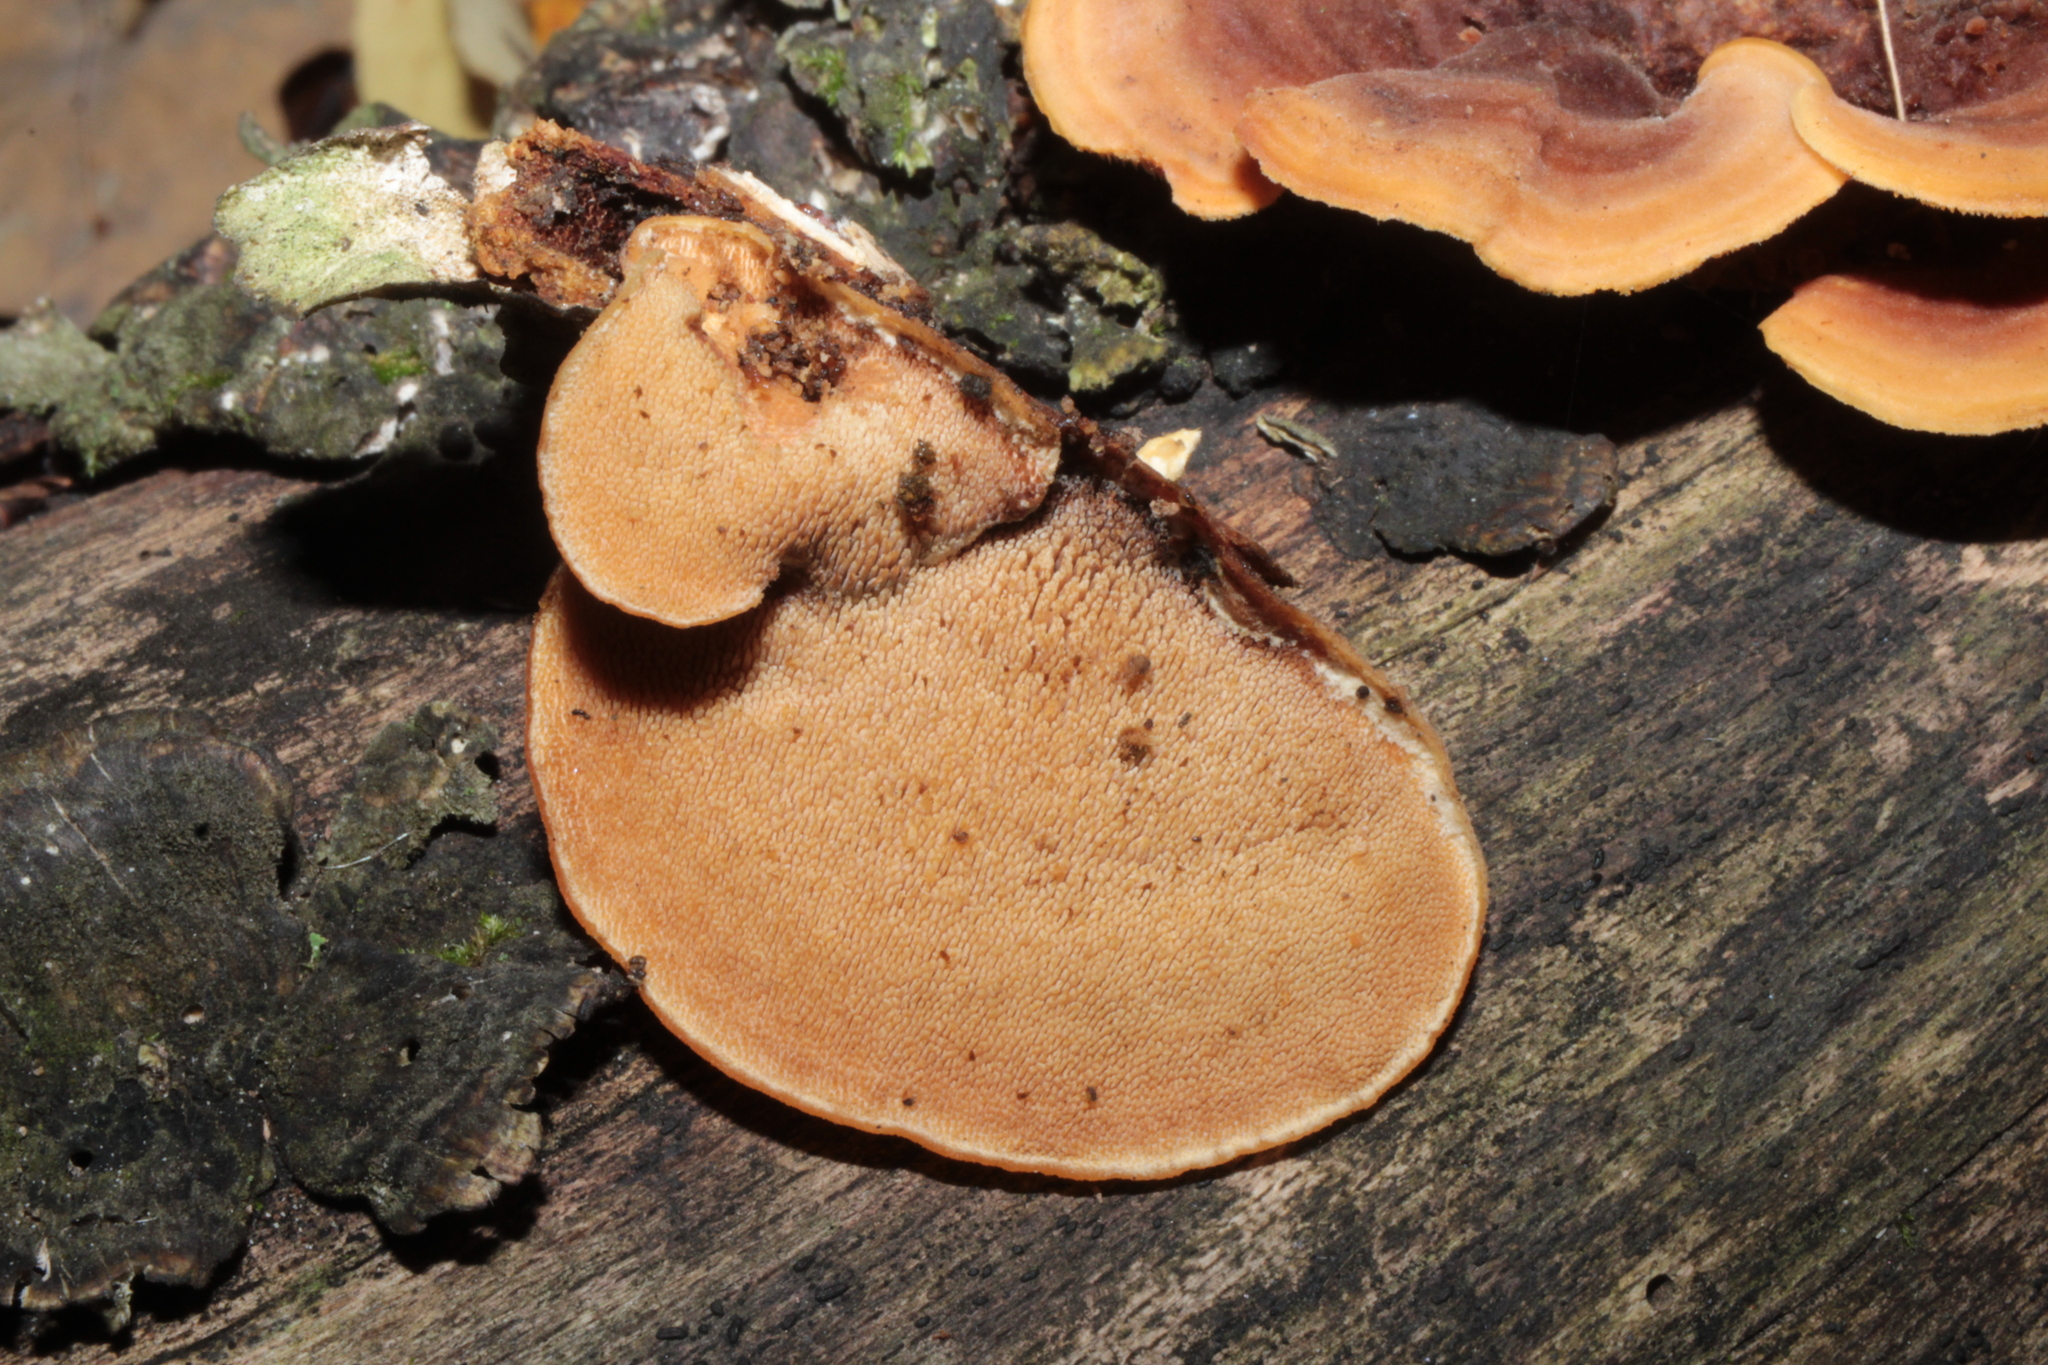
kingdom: Fungi
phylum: Basidiomycota
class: Agaricomycetes
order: Polyporales
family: Steccherinaceae
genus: Metuloidea
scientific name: Metuloidea reniformis
